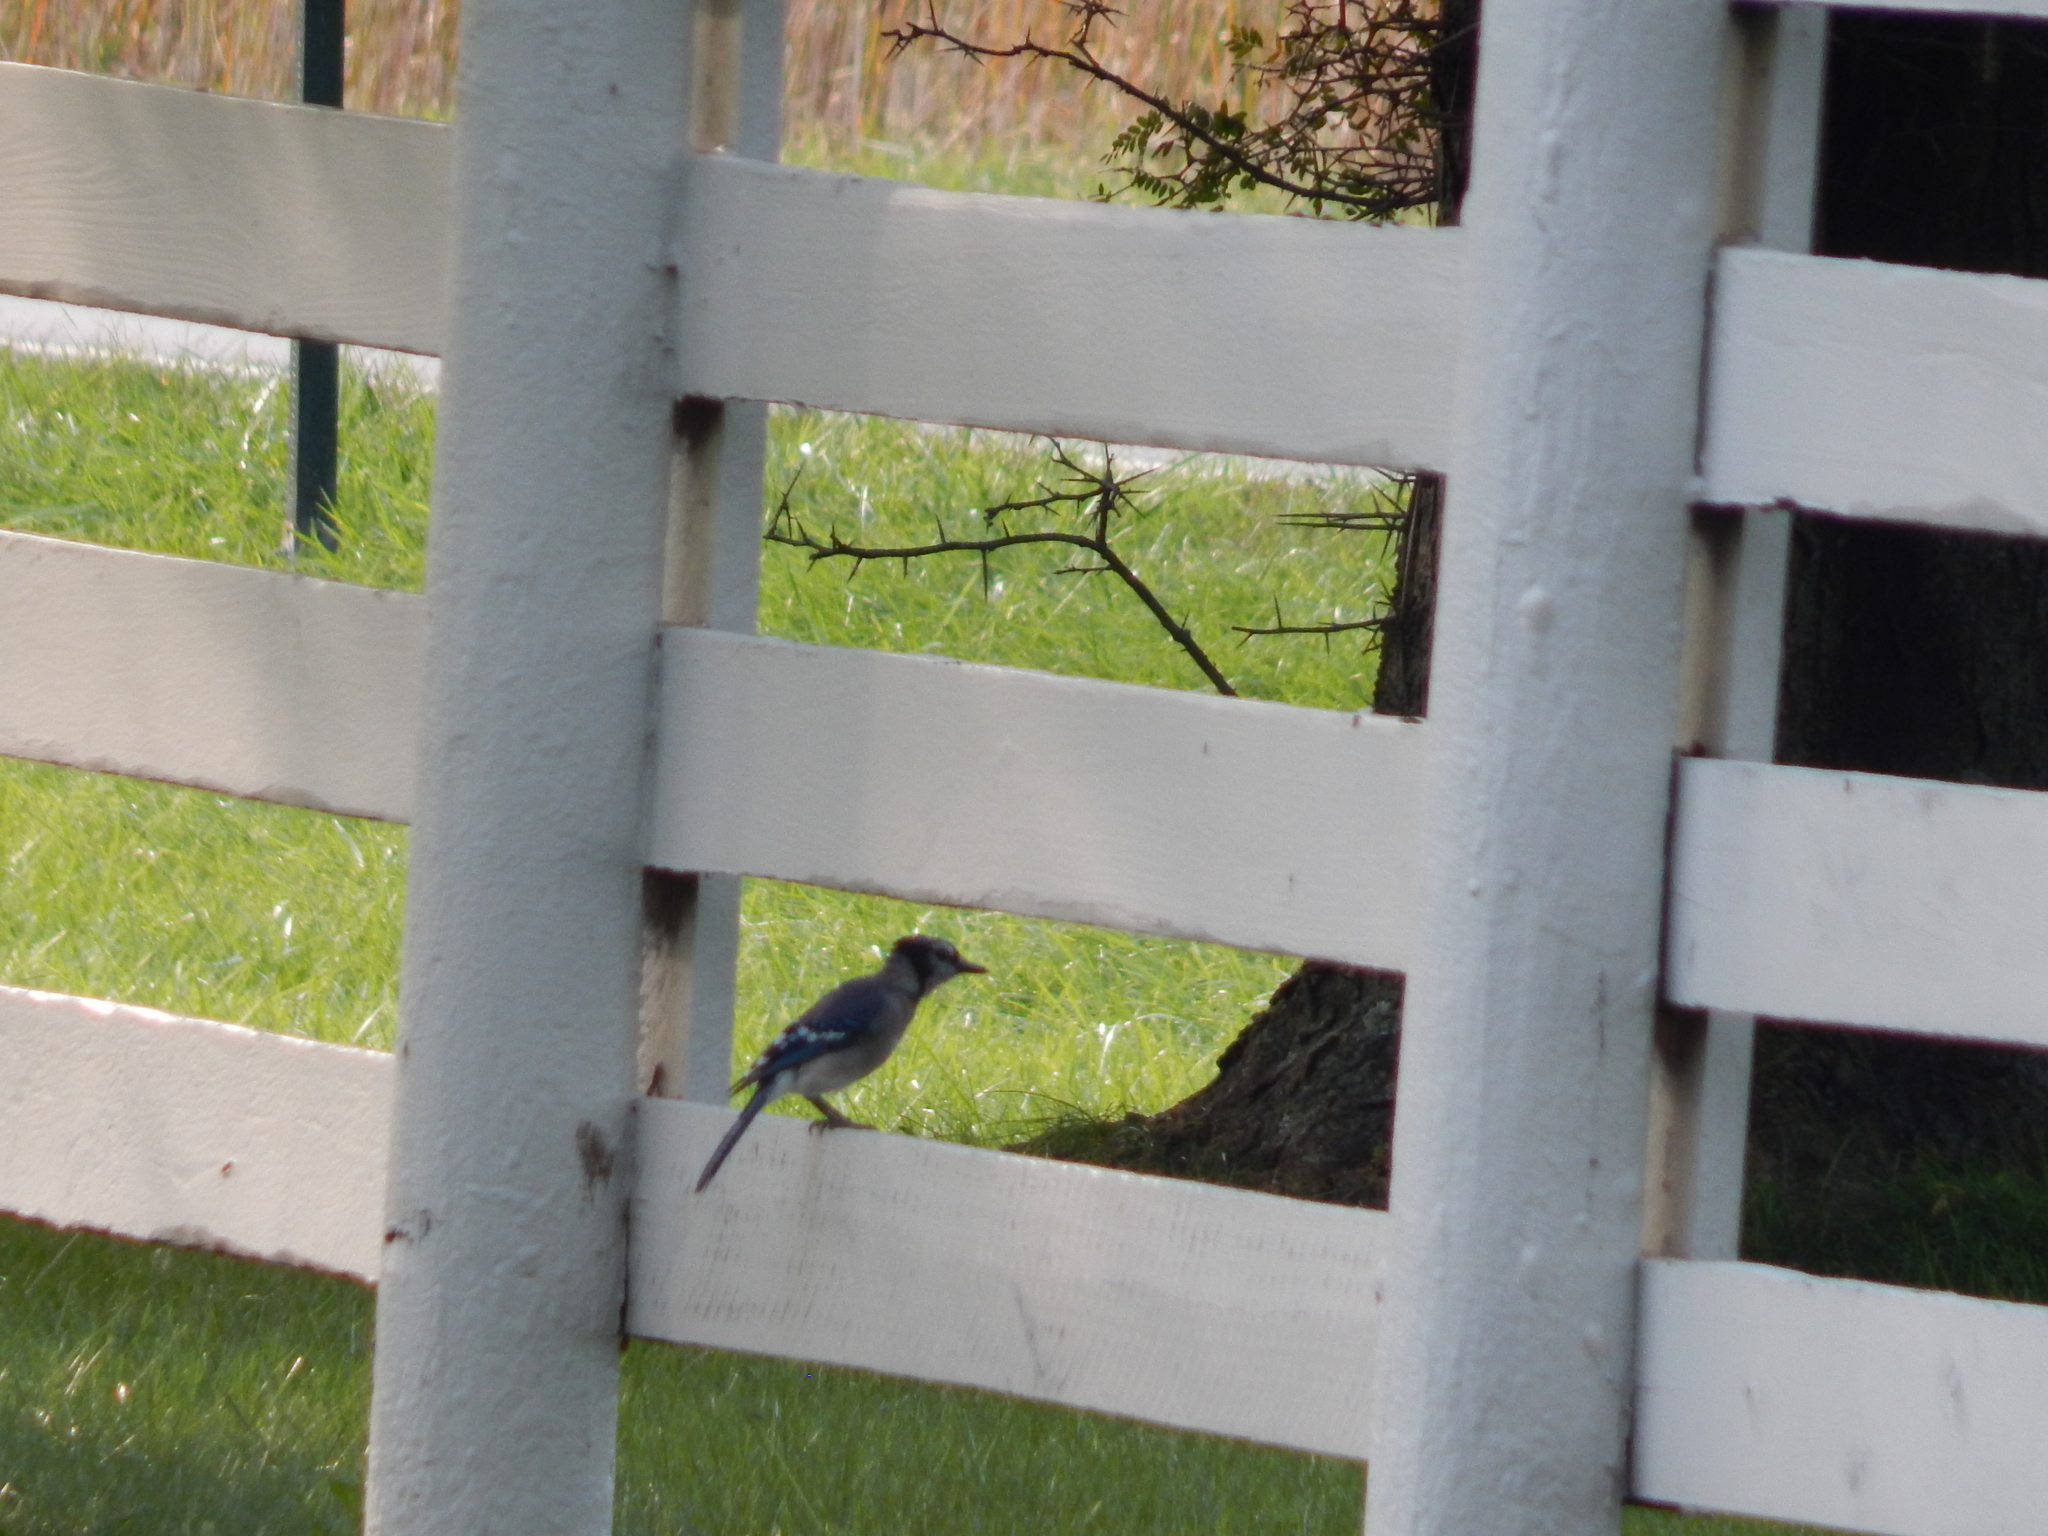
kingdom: Animalia
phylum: Chordata
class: Aves
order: Passeriformes
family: Corvidae
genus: Cyanocitta
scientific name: Cyanocitta cristata
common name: Blue jay
